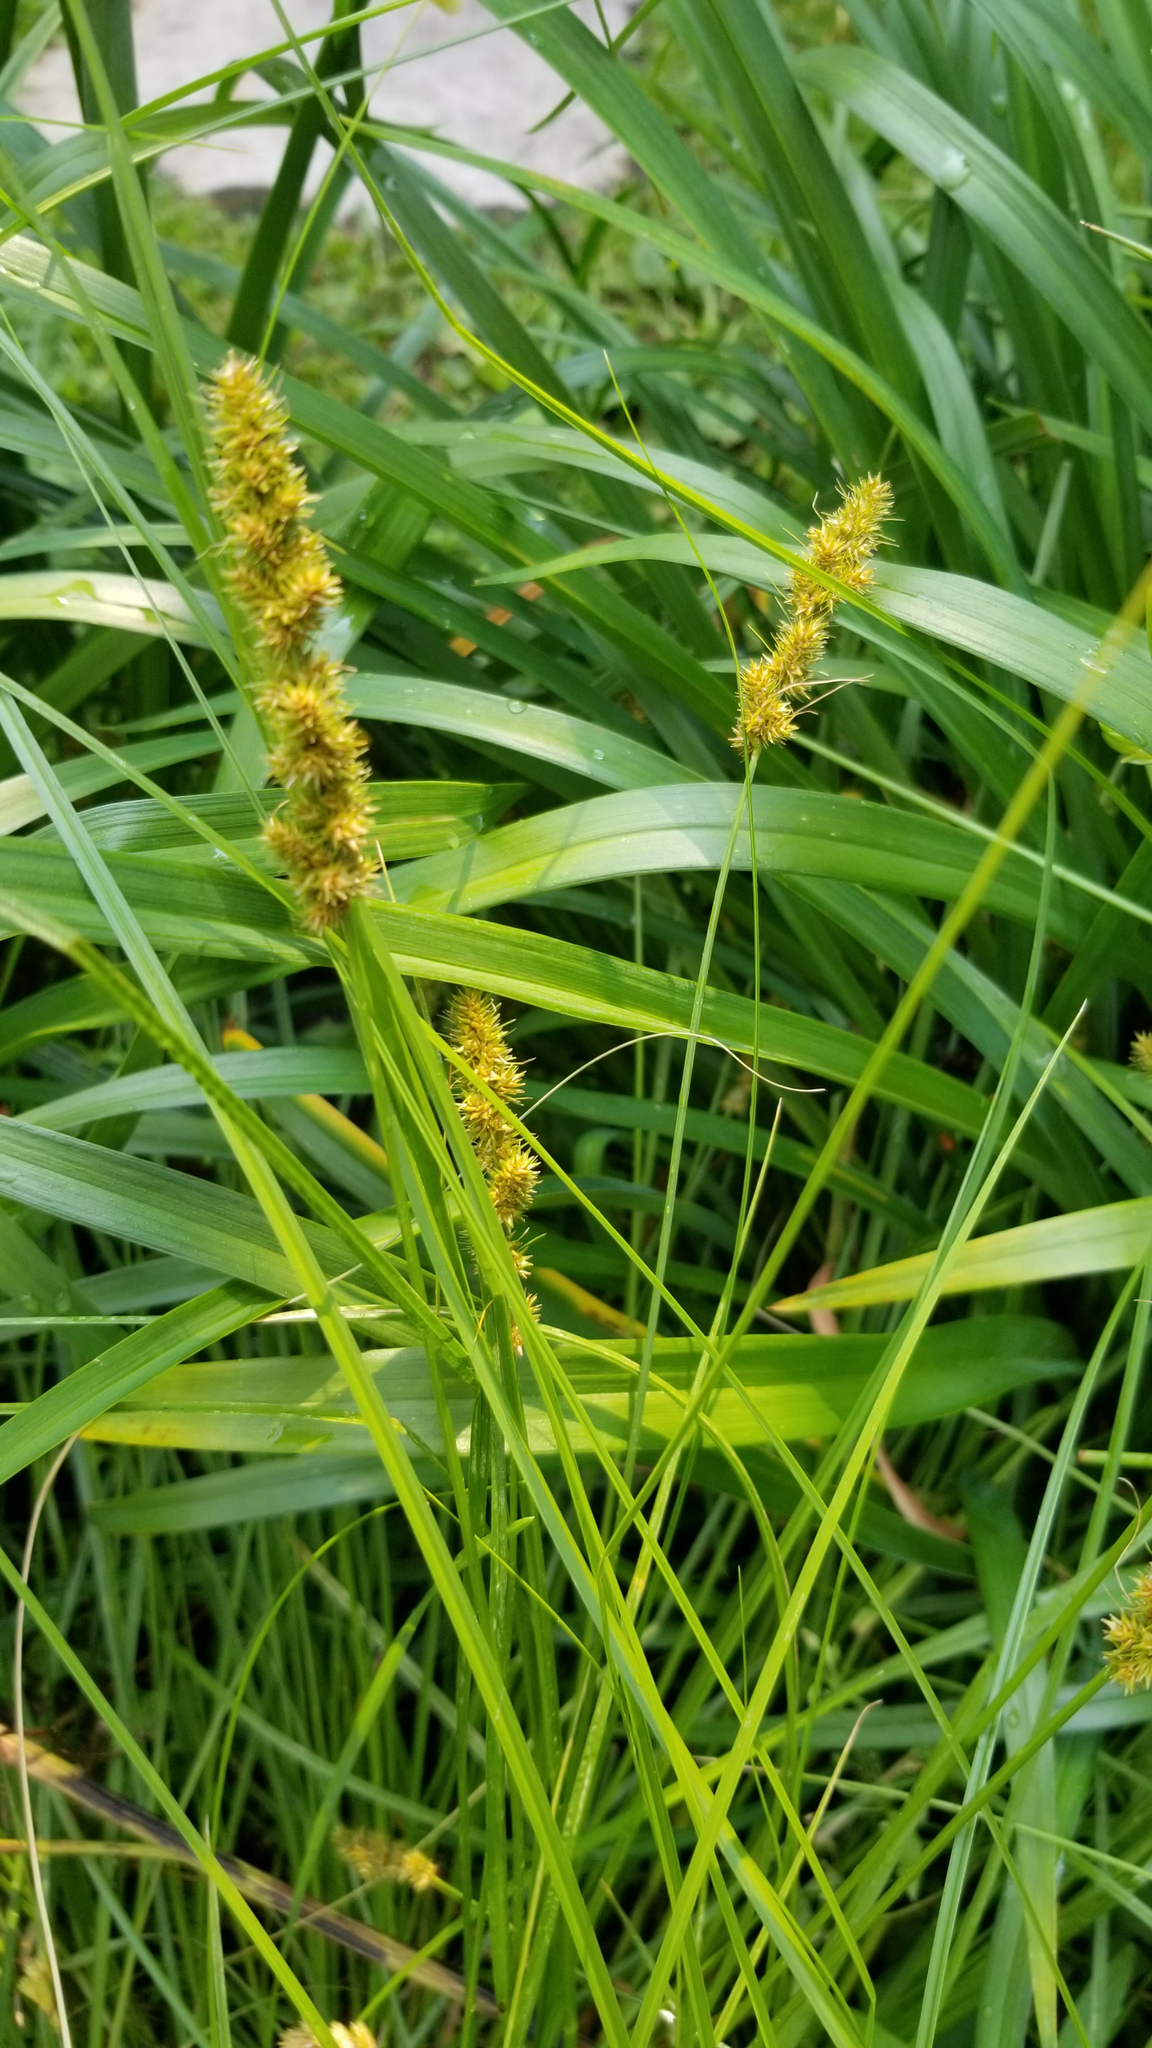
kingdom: Plantae
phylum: Tracheophyta
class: Liliopsida
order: Poales
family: Cyperaceae
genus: Carex
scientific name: Carex vulpinoidea
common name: American fox-sedge
